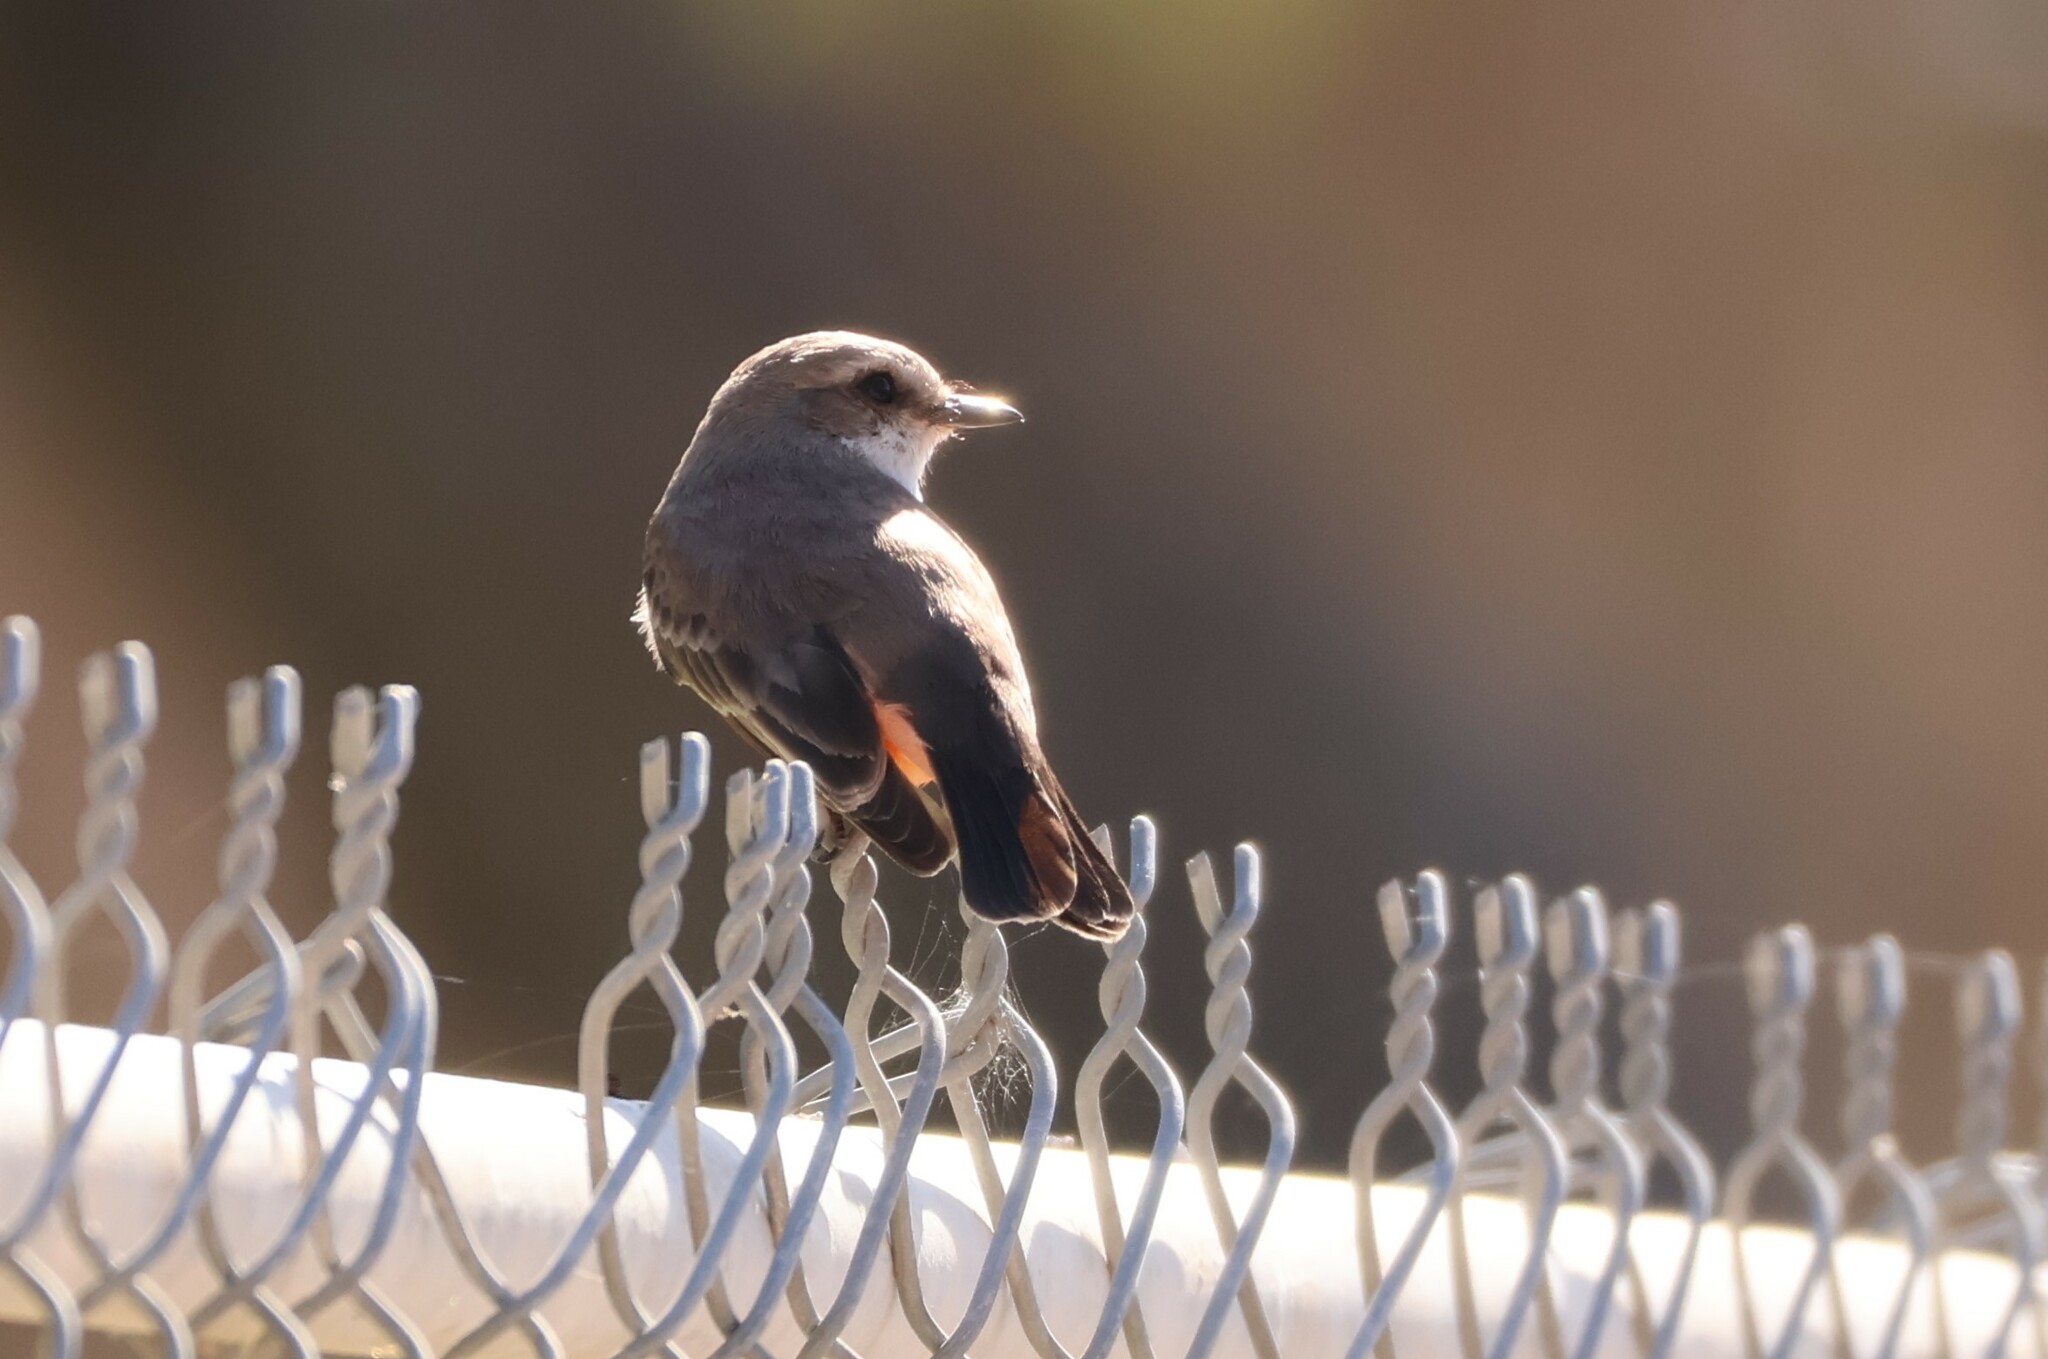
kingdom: Animalia
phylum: Chordata
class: Aves
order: Passeriformes
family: Tyrannidae
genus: Pyrocephalus
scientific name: Pyrocephalus rubinus
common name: Vermilion flycatcher
